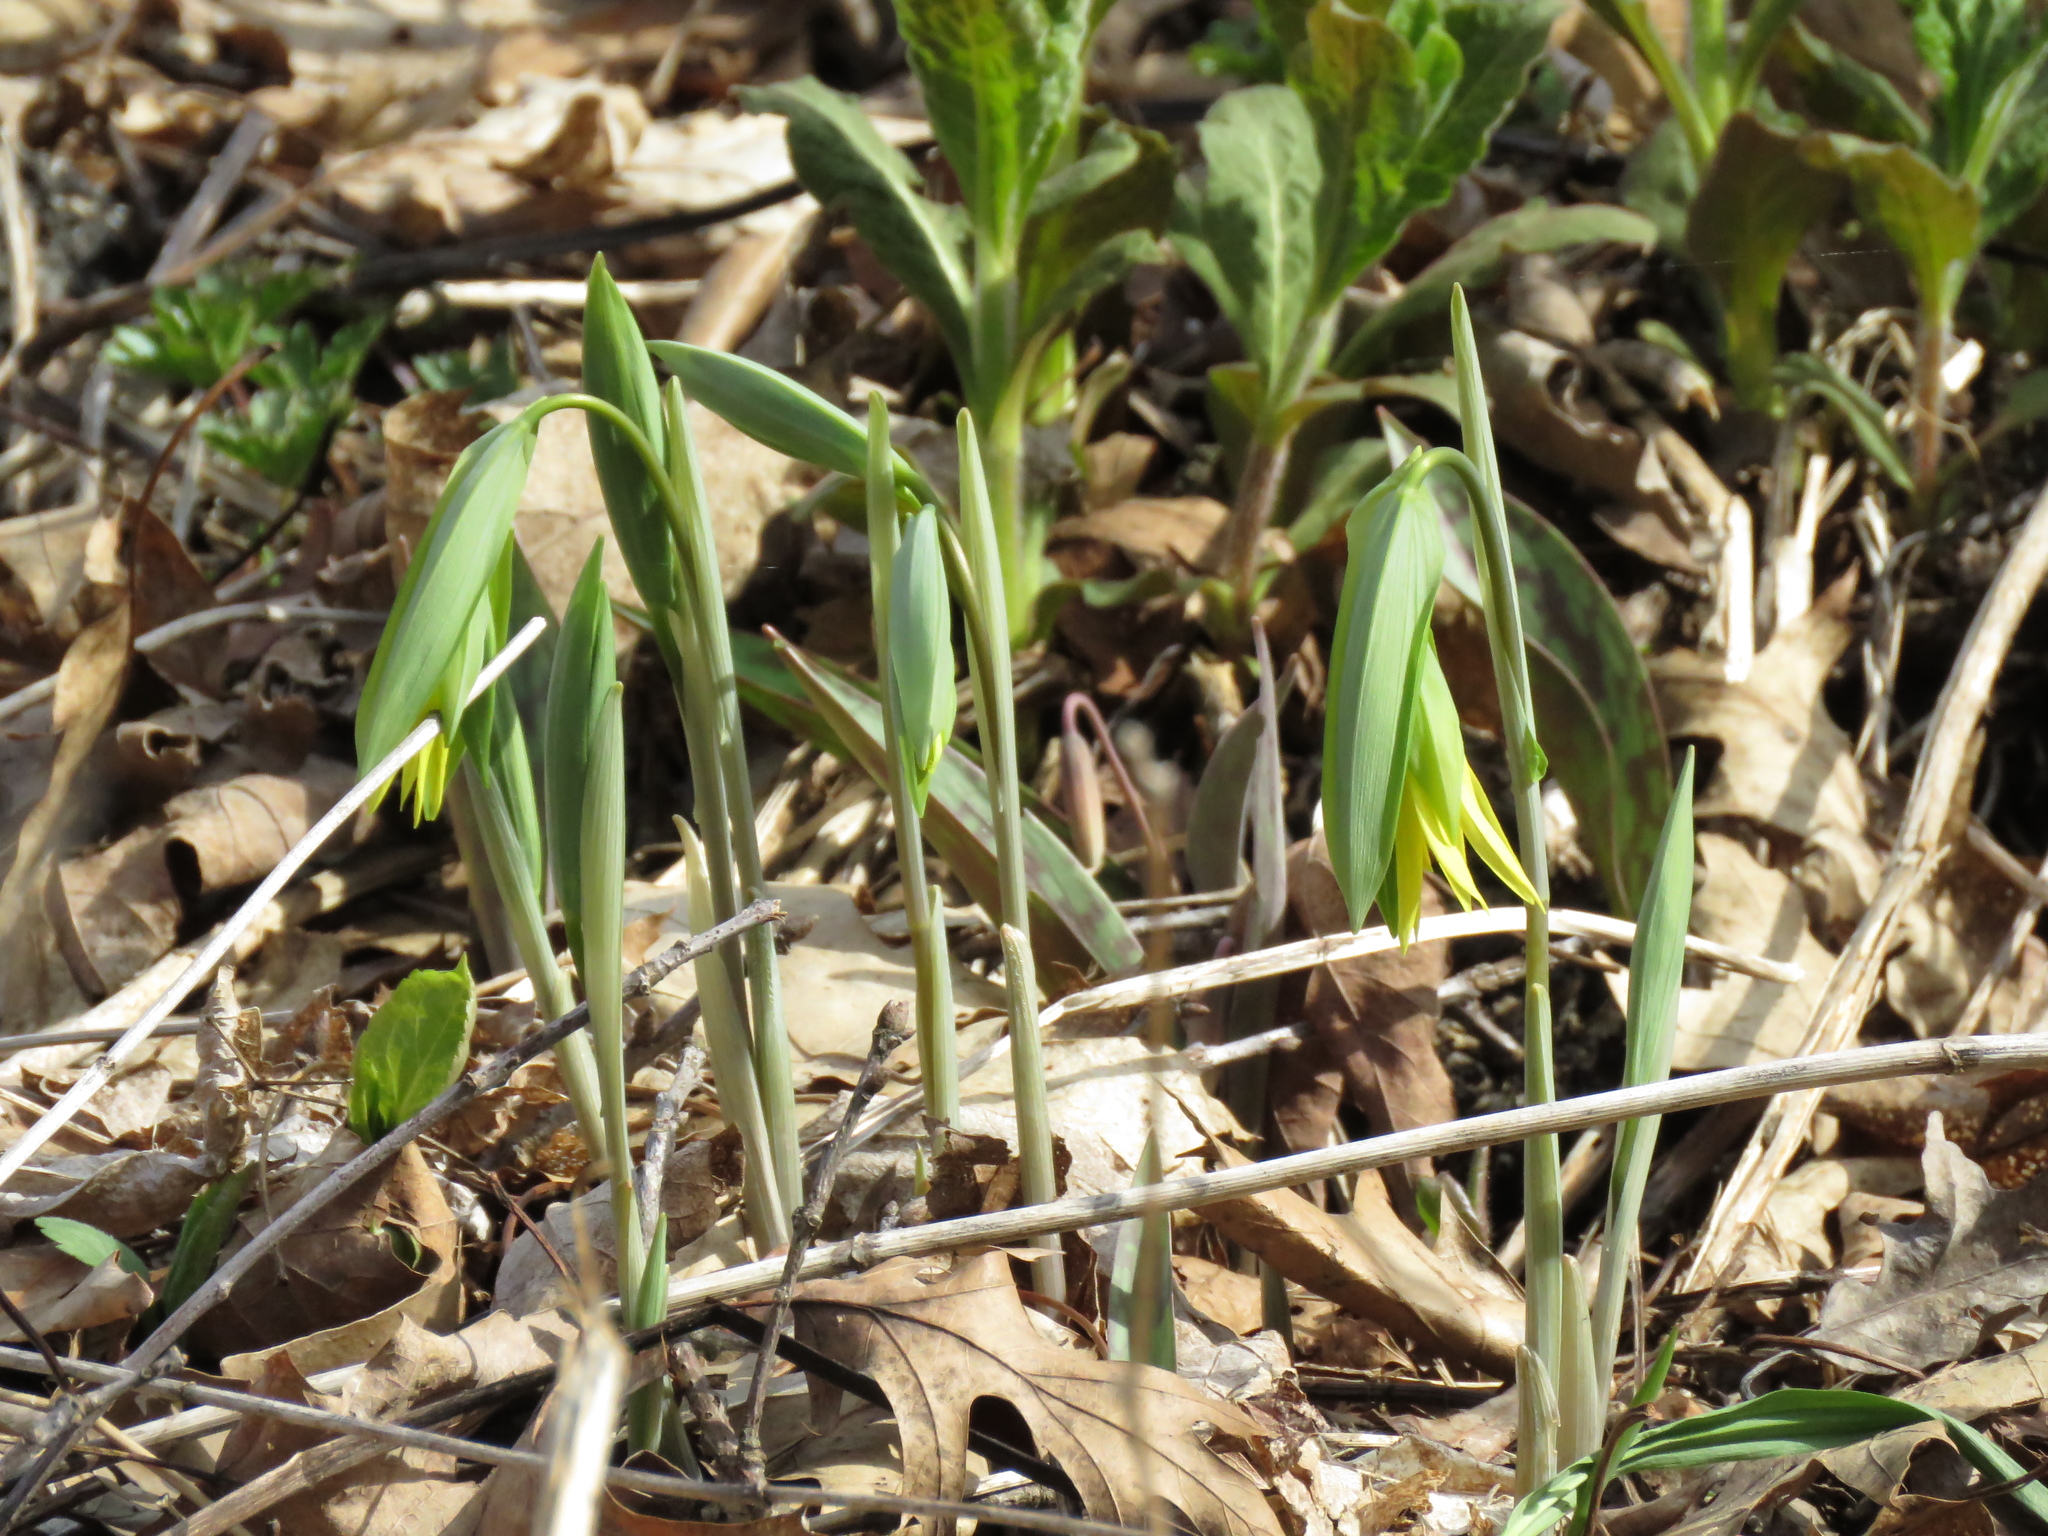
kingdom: Plantae
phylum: Tracheophyta
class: Liliopsida
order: Liliales
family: Colchicaceae
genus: Uvularia
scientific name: Uvularia grandiflora
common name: Bellwort
